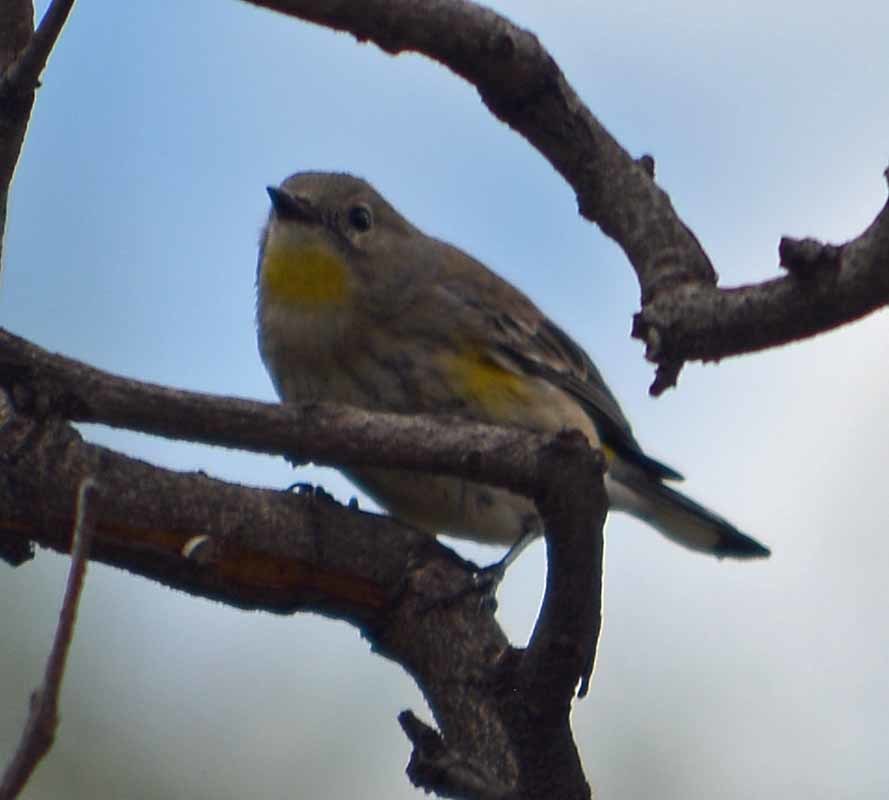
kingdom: Animalia
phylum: Chordata
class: Aves
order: Passeriformes
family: Parulidae
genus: Setophaga
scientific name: Setophaga coronata
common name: Myrtle warbler
